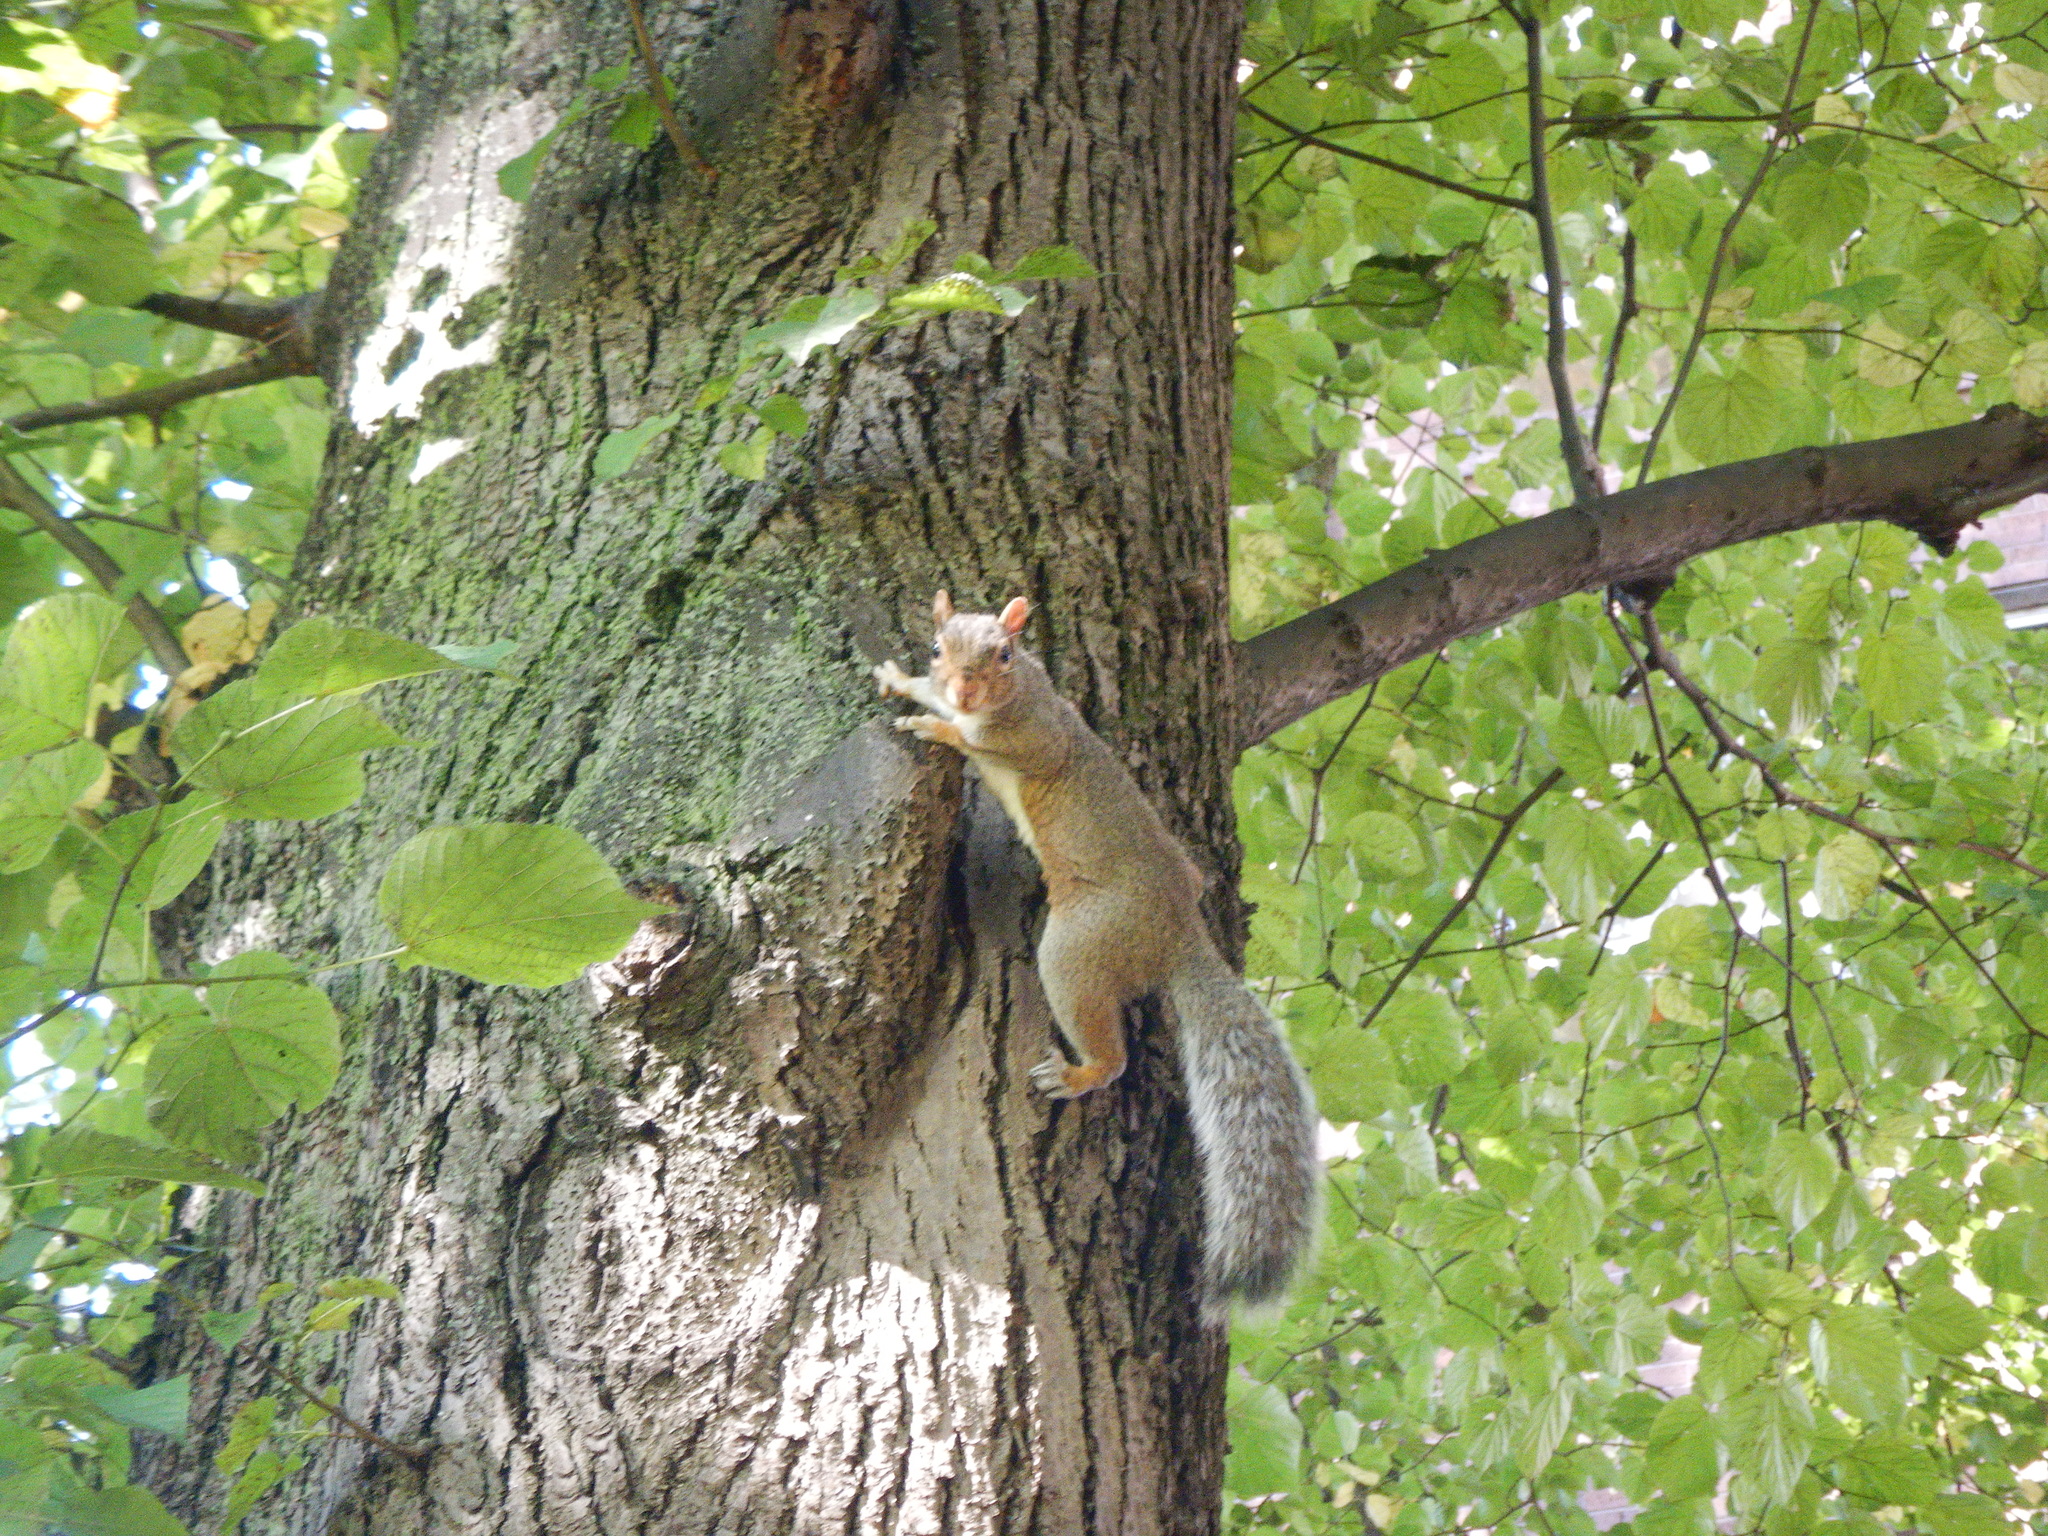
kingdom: Animalia
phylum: Chordata
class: Mammalia
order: Rodentia
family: Sciuridae
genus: Sciurus
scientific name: Sciurus carolinensis
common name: Eastern gray squirrel
